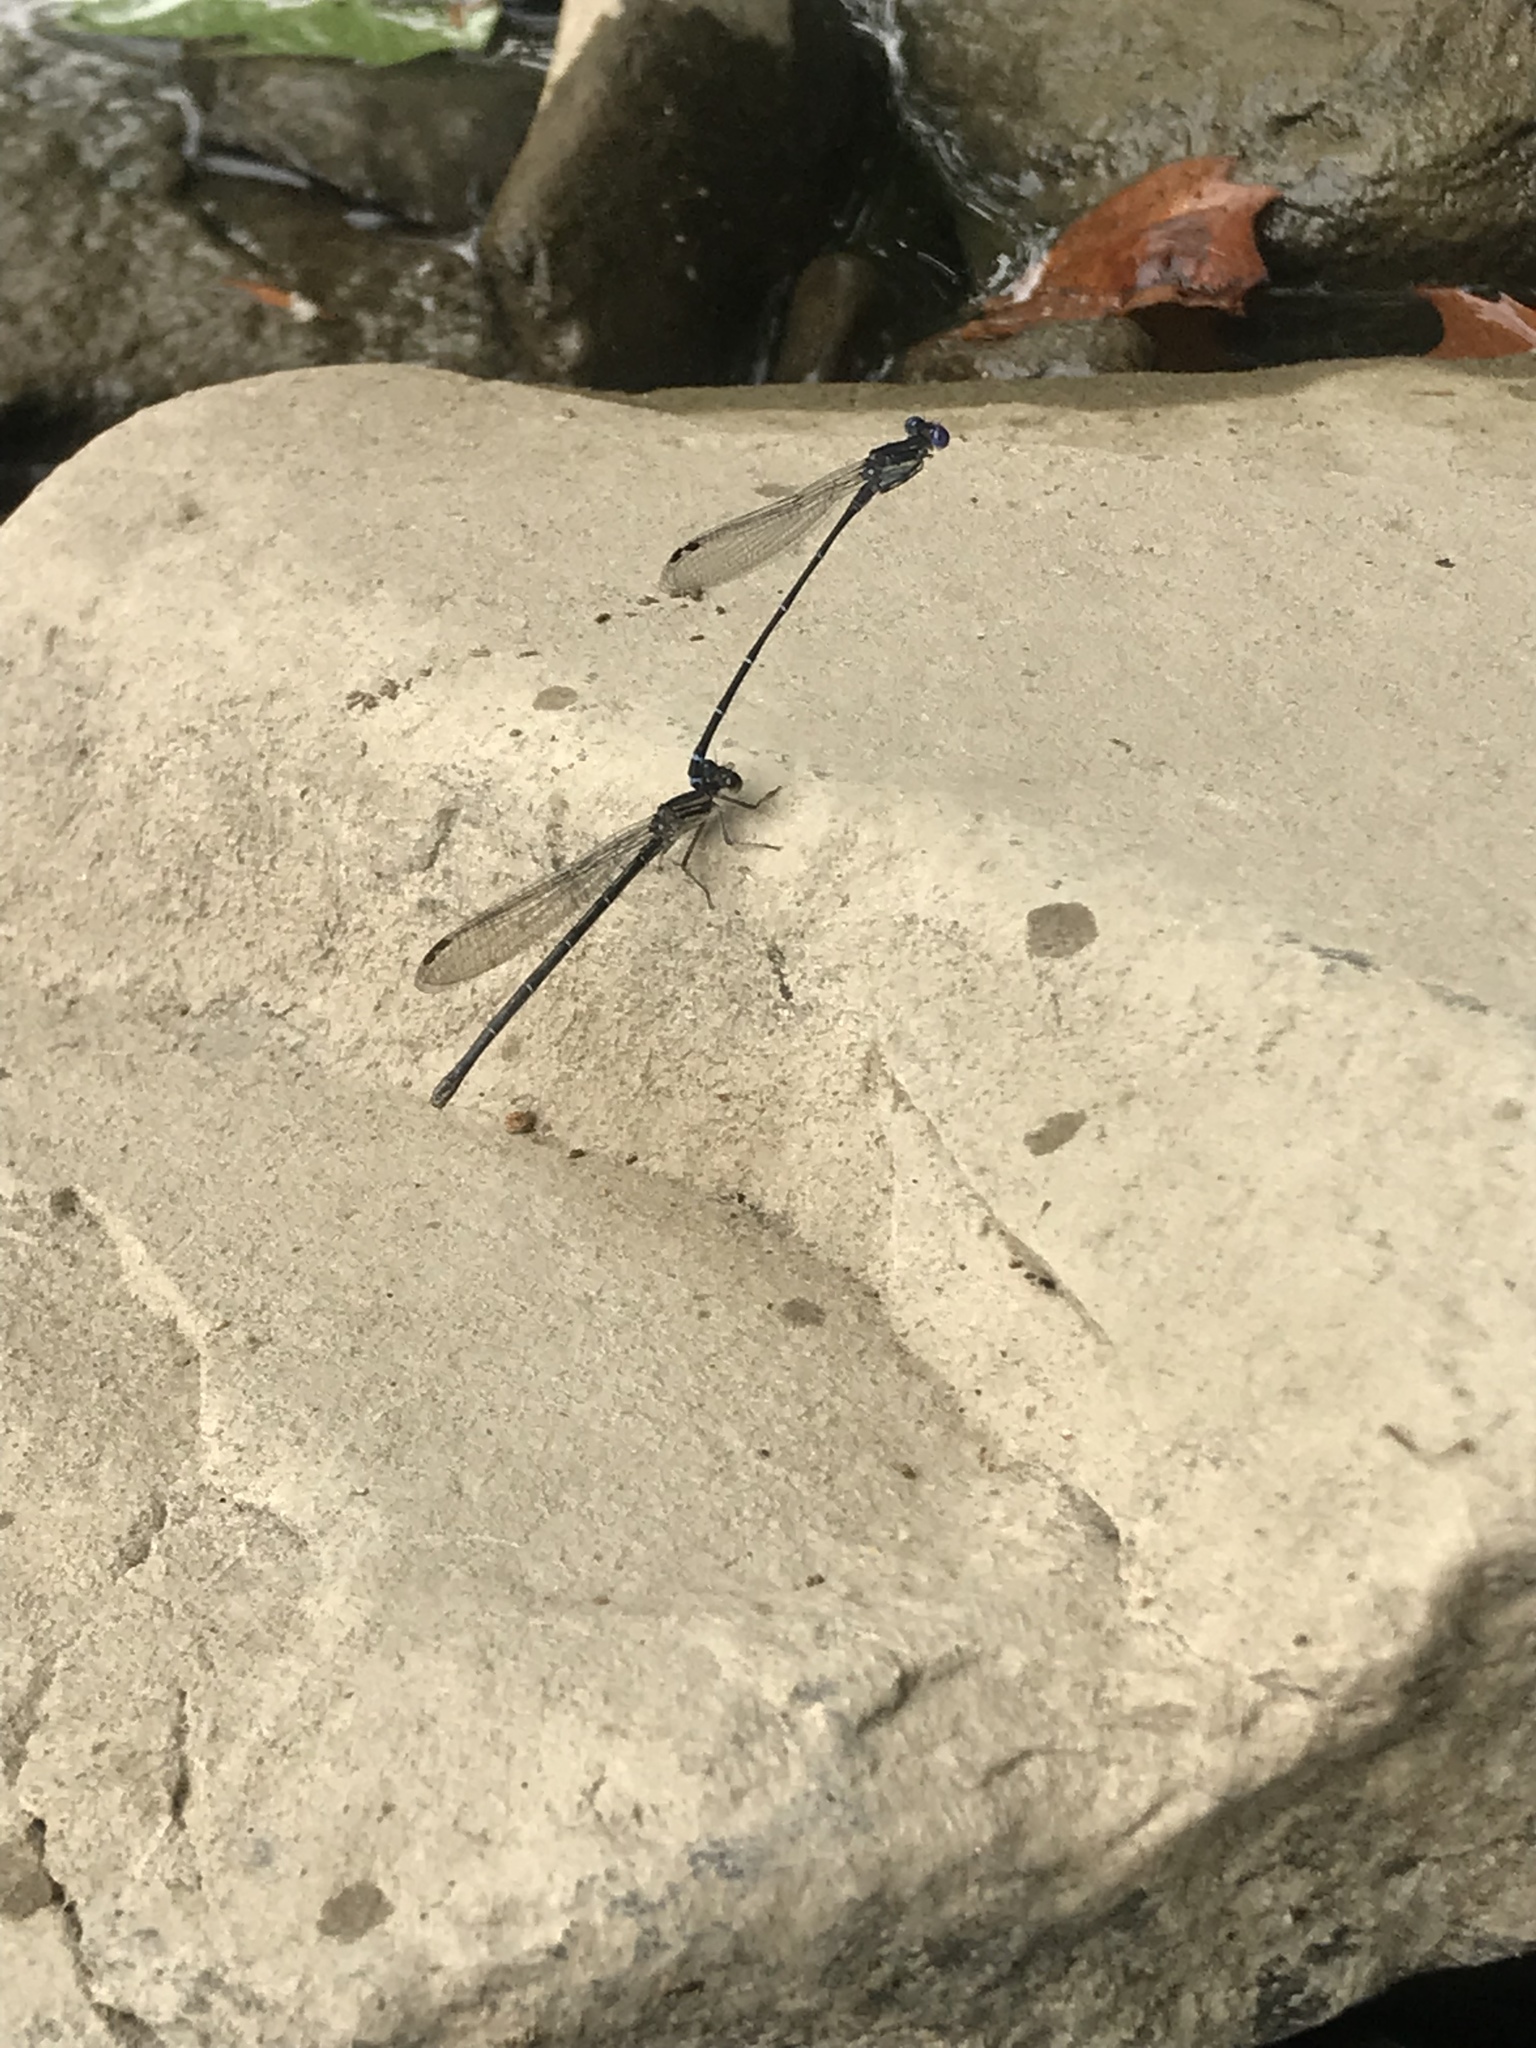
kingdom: Animalia
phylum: Arthropoda
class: Insecta
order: Odonata
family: Coenagrionidae
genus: Argia
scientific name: Argia translata
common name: Dusky dancer
